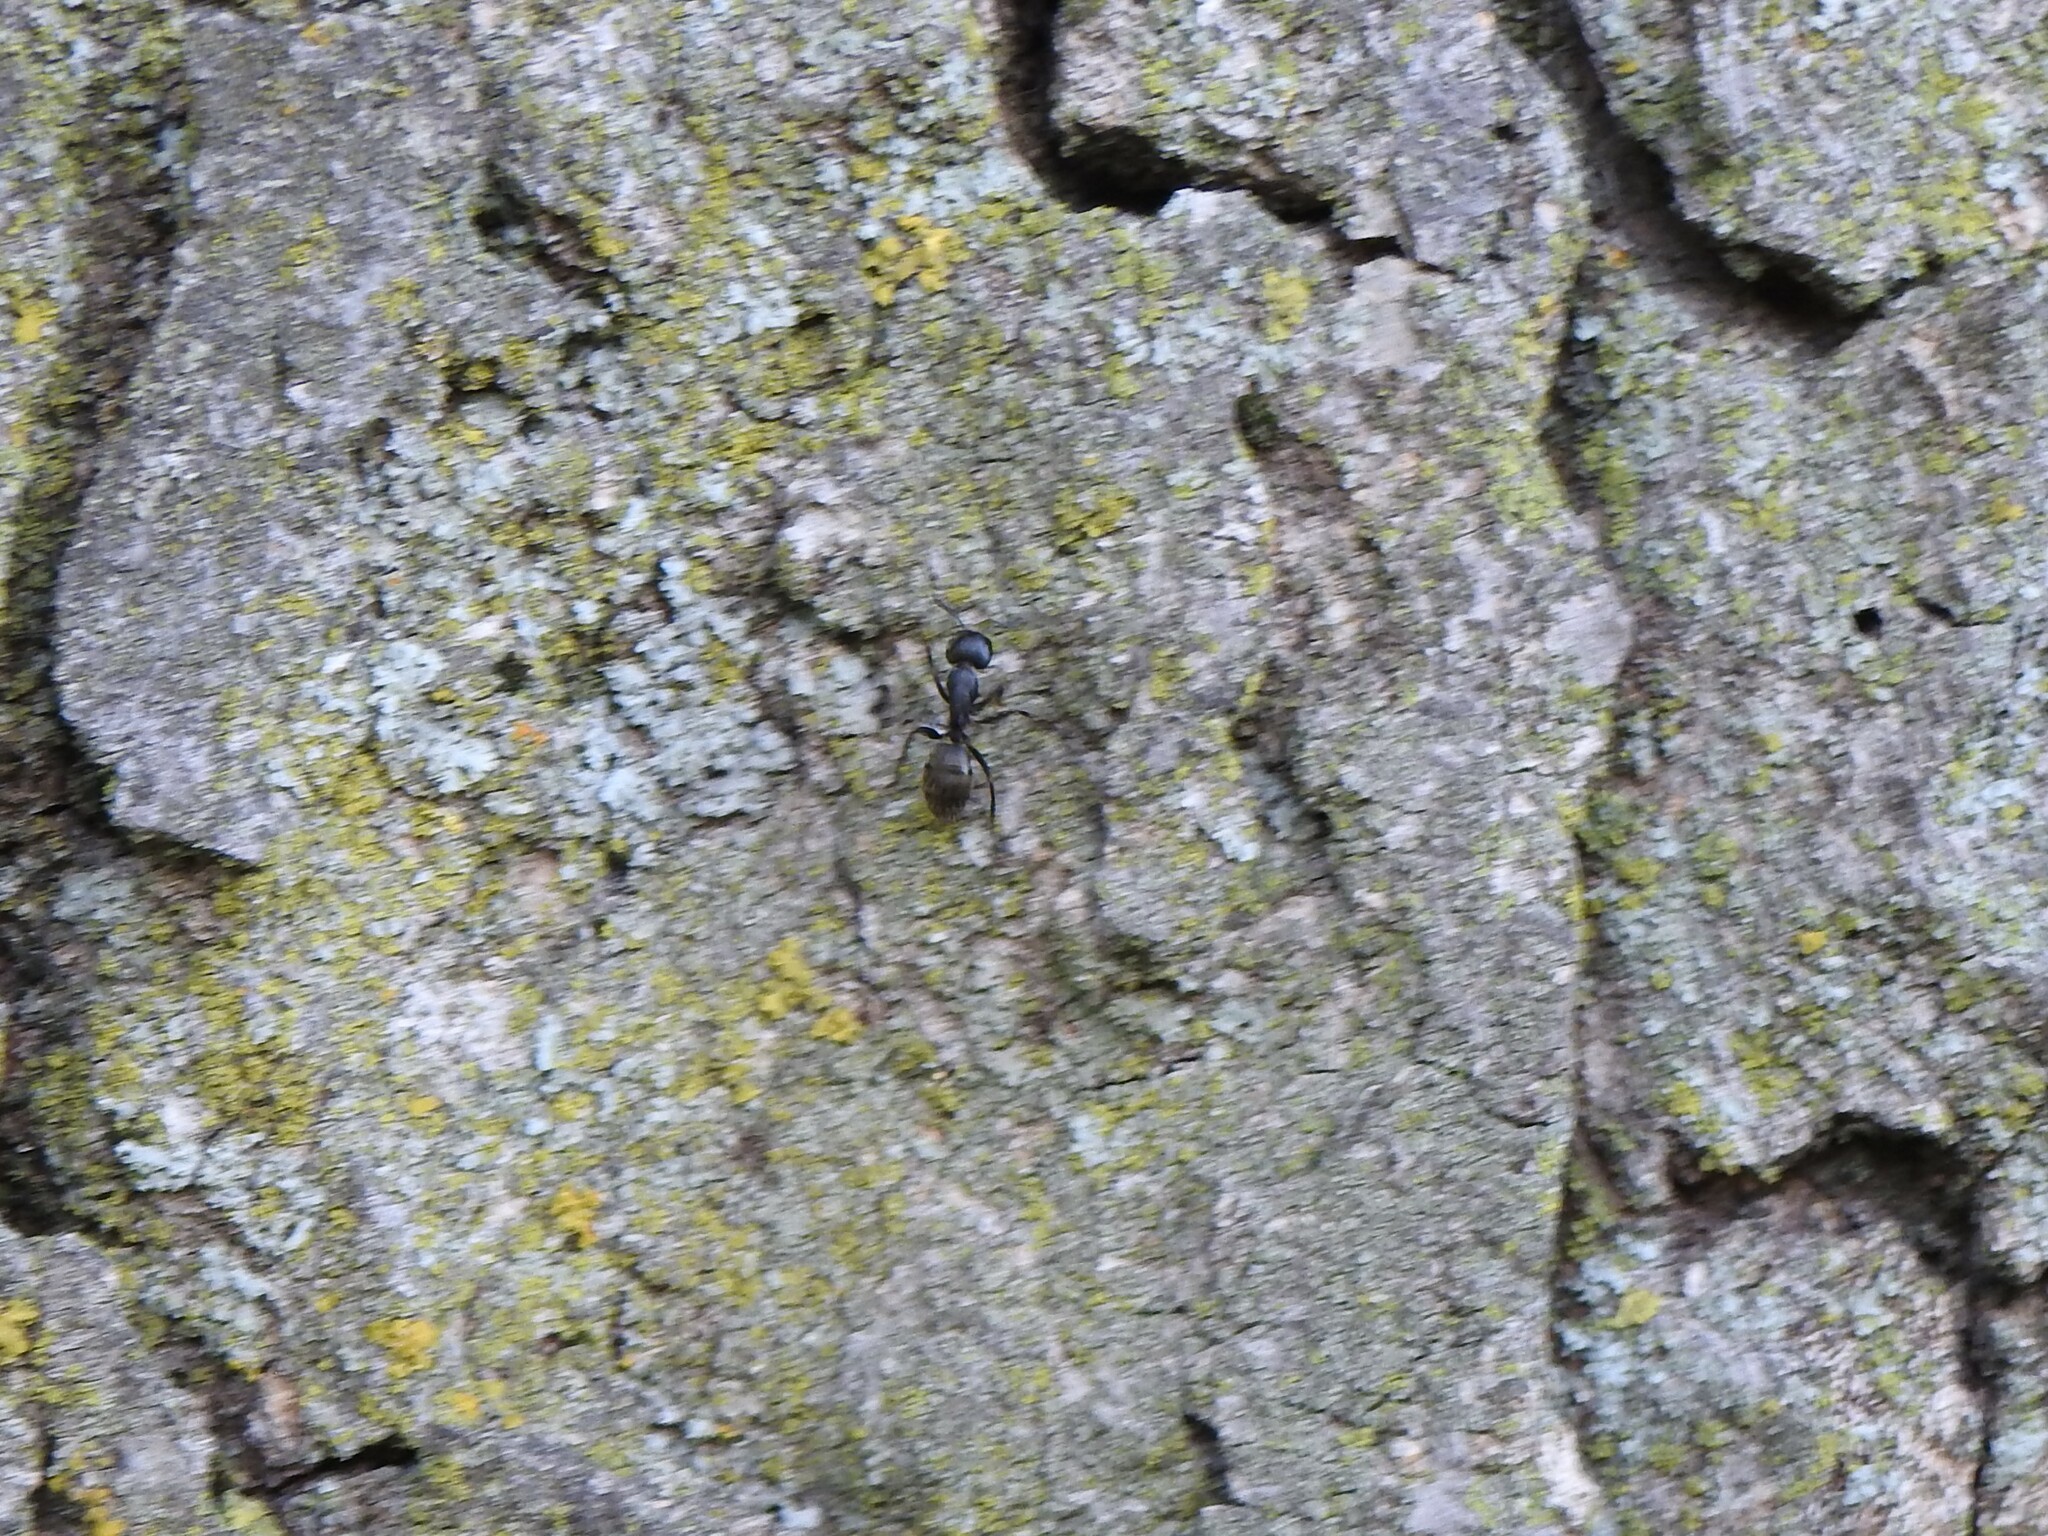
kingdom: Animalia
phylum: Arthropoda
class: Insecta
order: Hymenoptera
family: Formicidae
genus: Camponotus
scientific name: Camponotus pennsylvanicus
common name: Black carpenter ant
